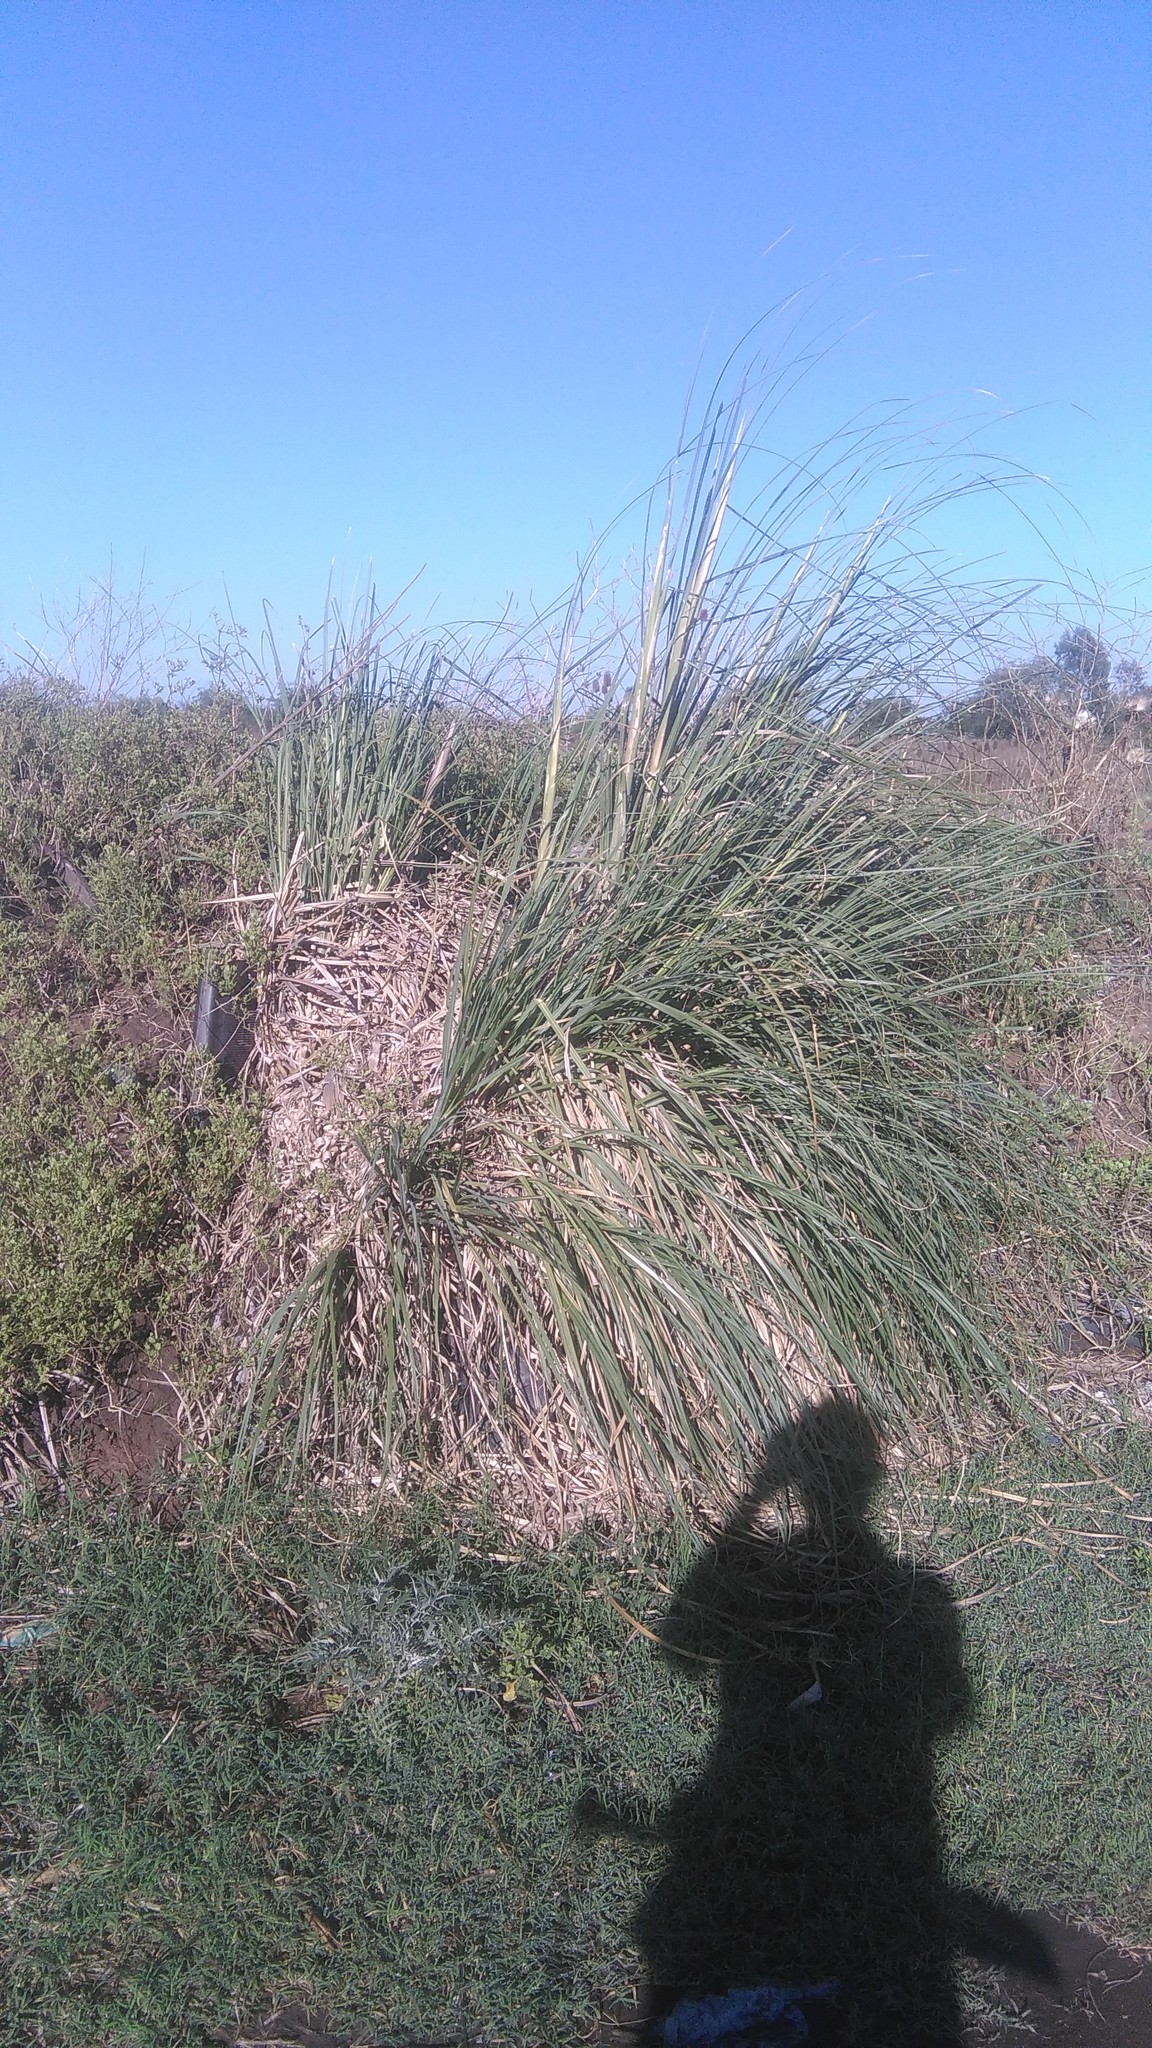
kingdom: Plantae
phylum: Tracheophyta
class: Liliopsida
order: Poales
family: Poaceae
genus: Cortaderia
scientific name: Cortaderia selloana
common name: Uruguayan pampas grass
